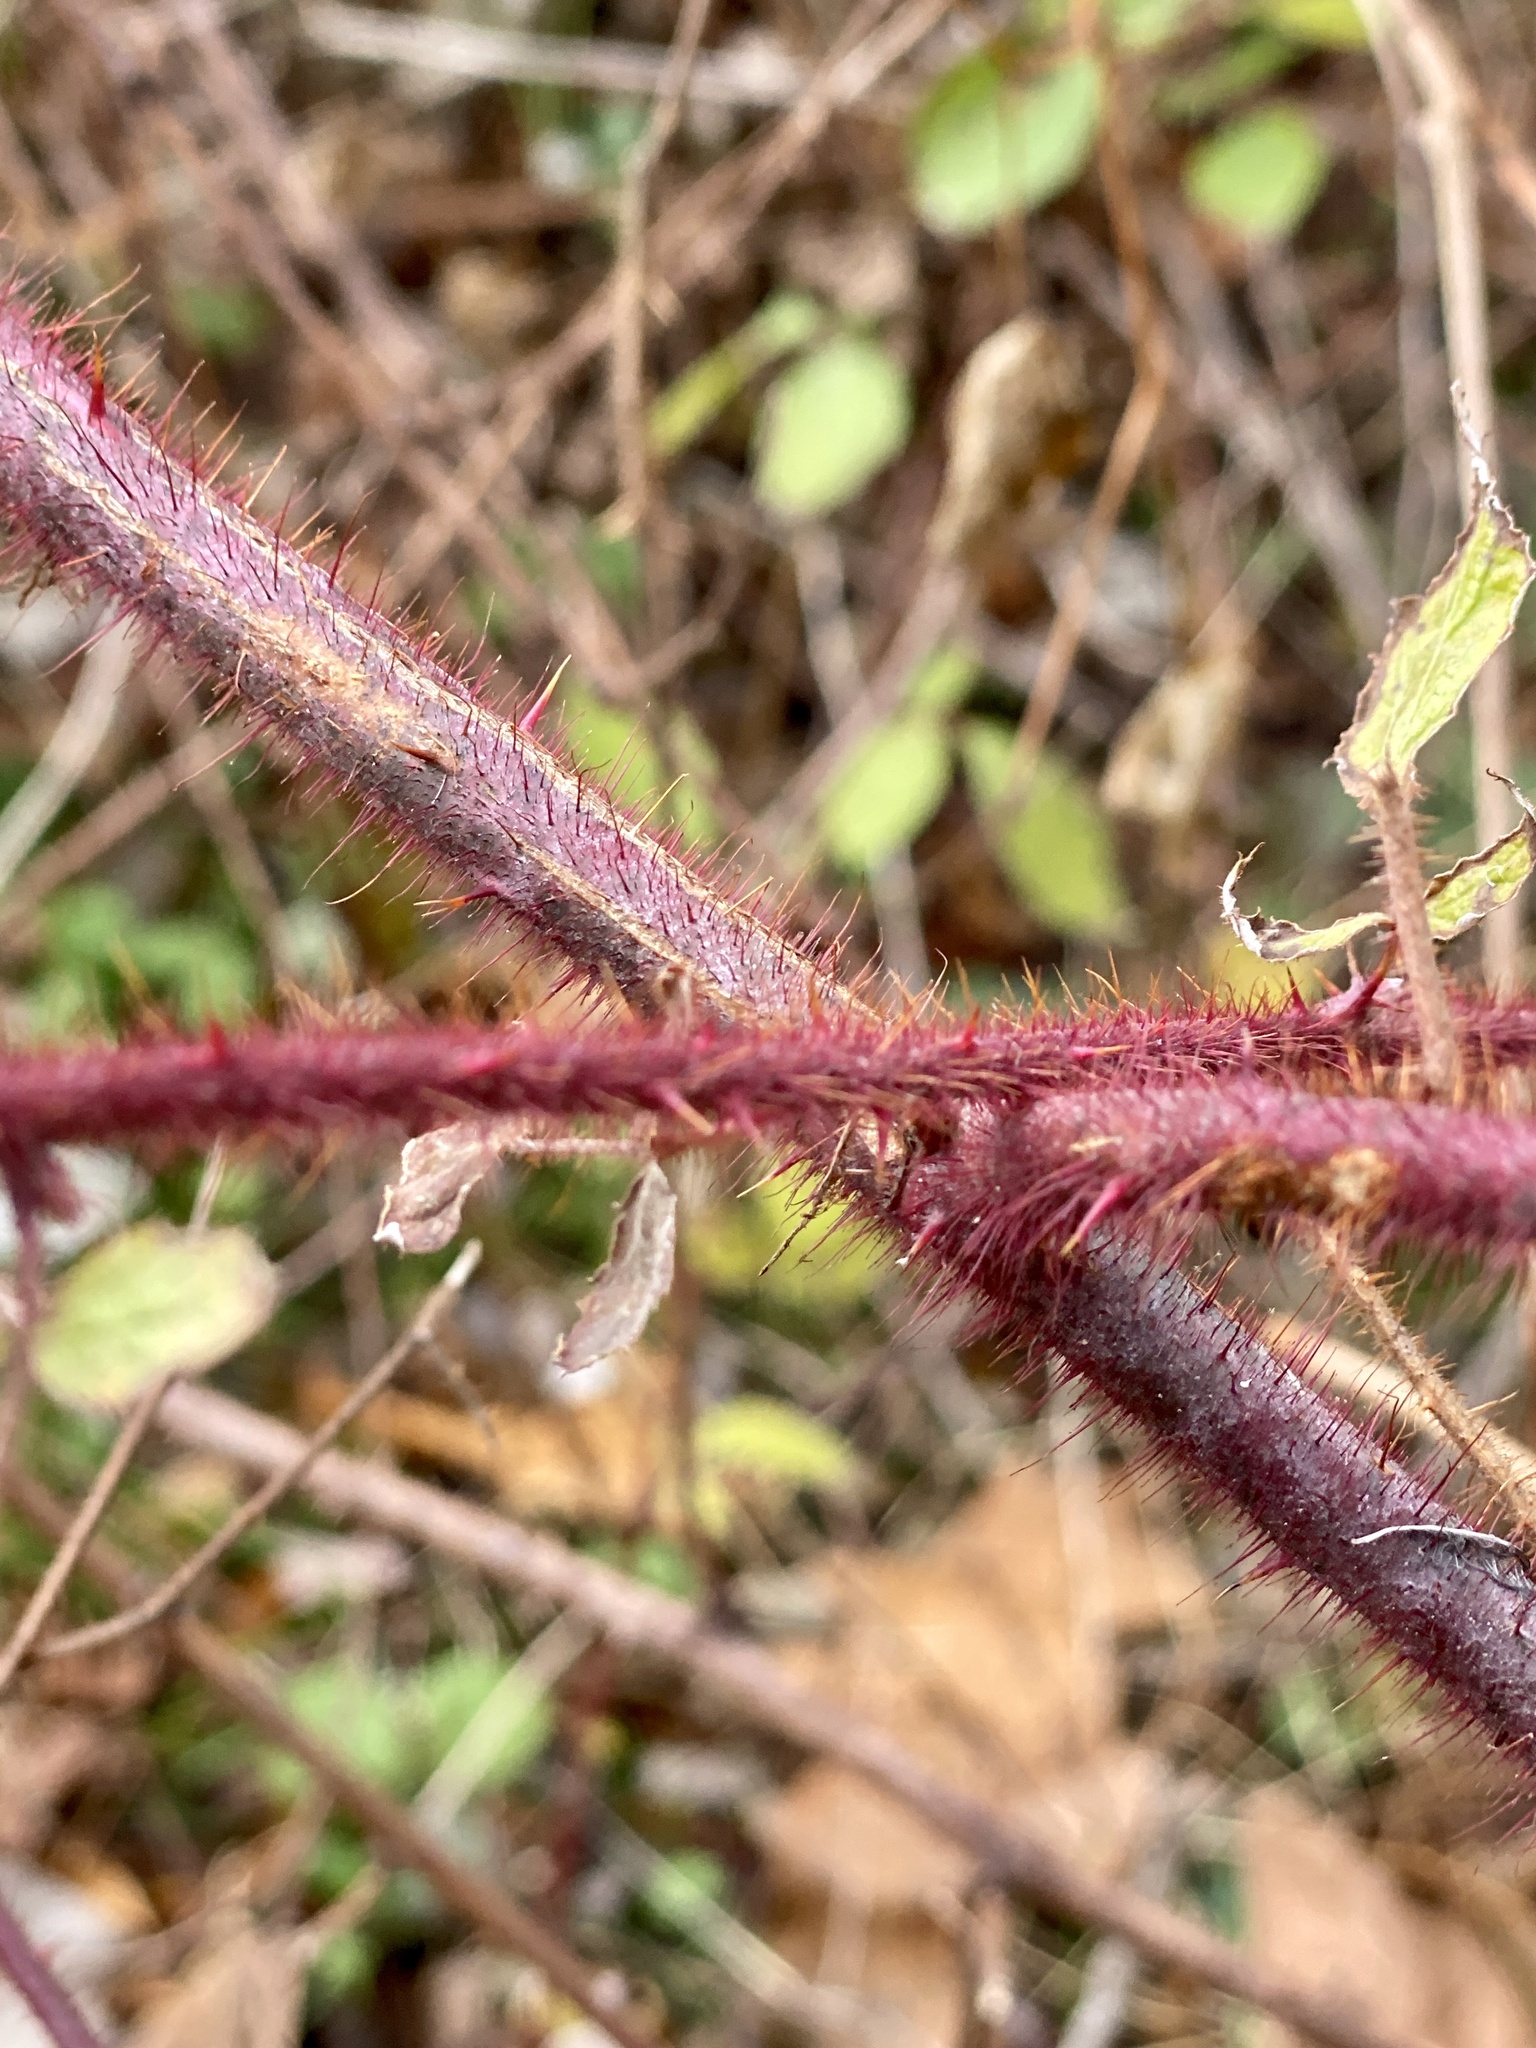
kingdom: Plantae
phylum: Tracheophyta
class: Magnoliopsida
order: Rosales
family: Rosaceae
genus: Rubus
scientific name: Rubus phoenicolasius
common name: Japanese wineberry
